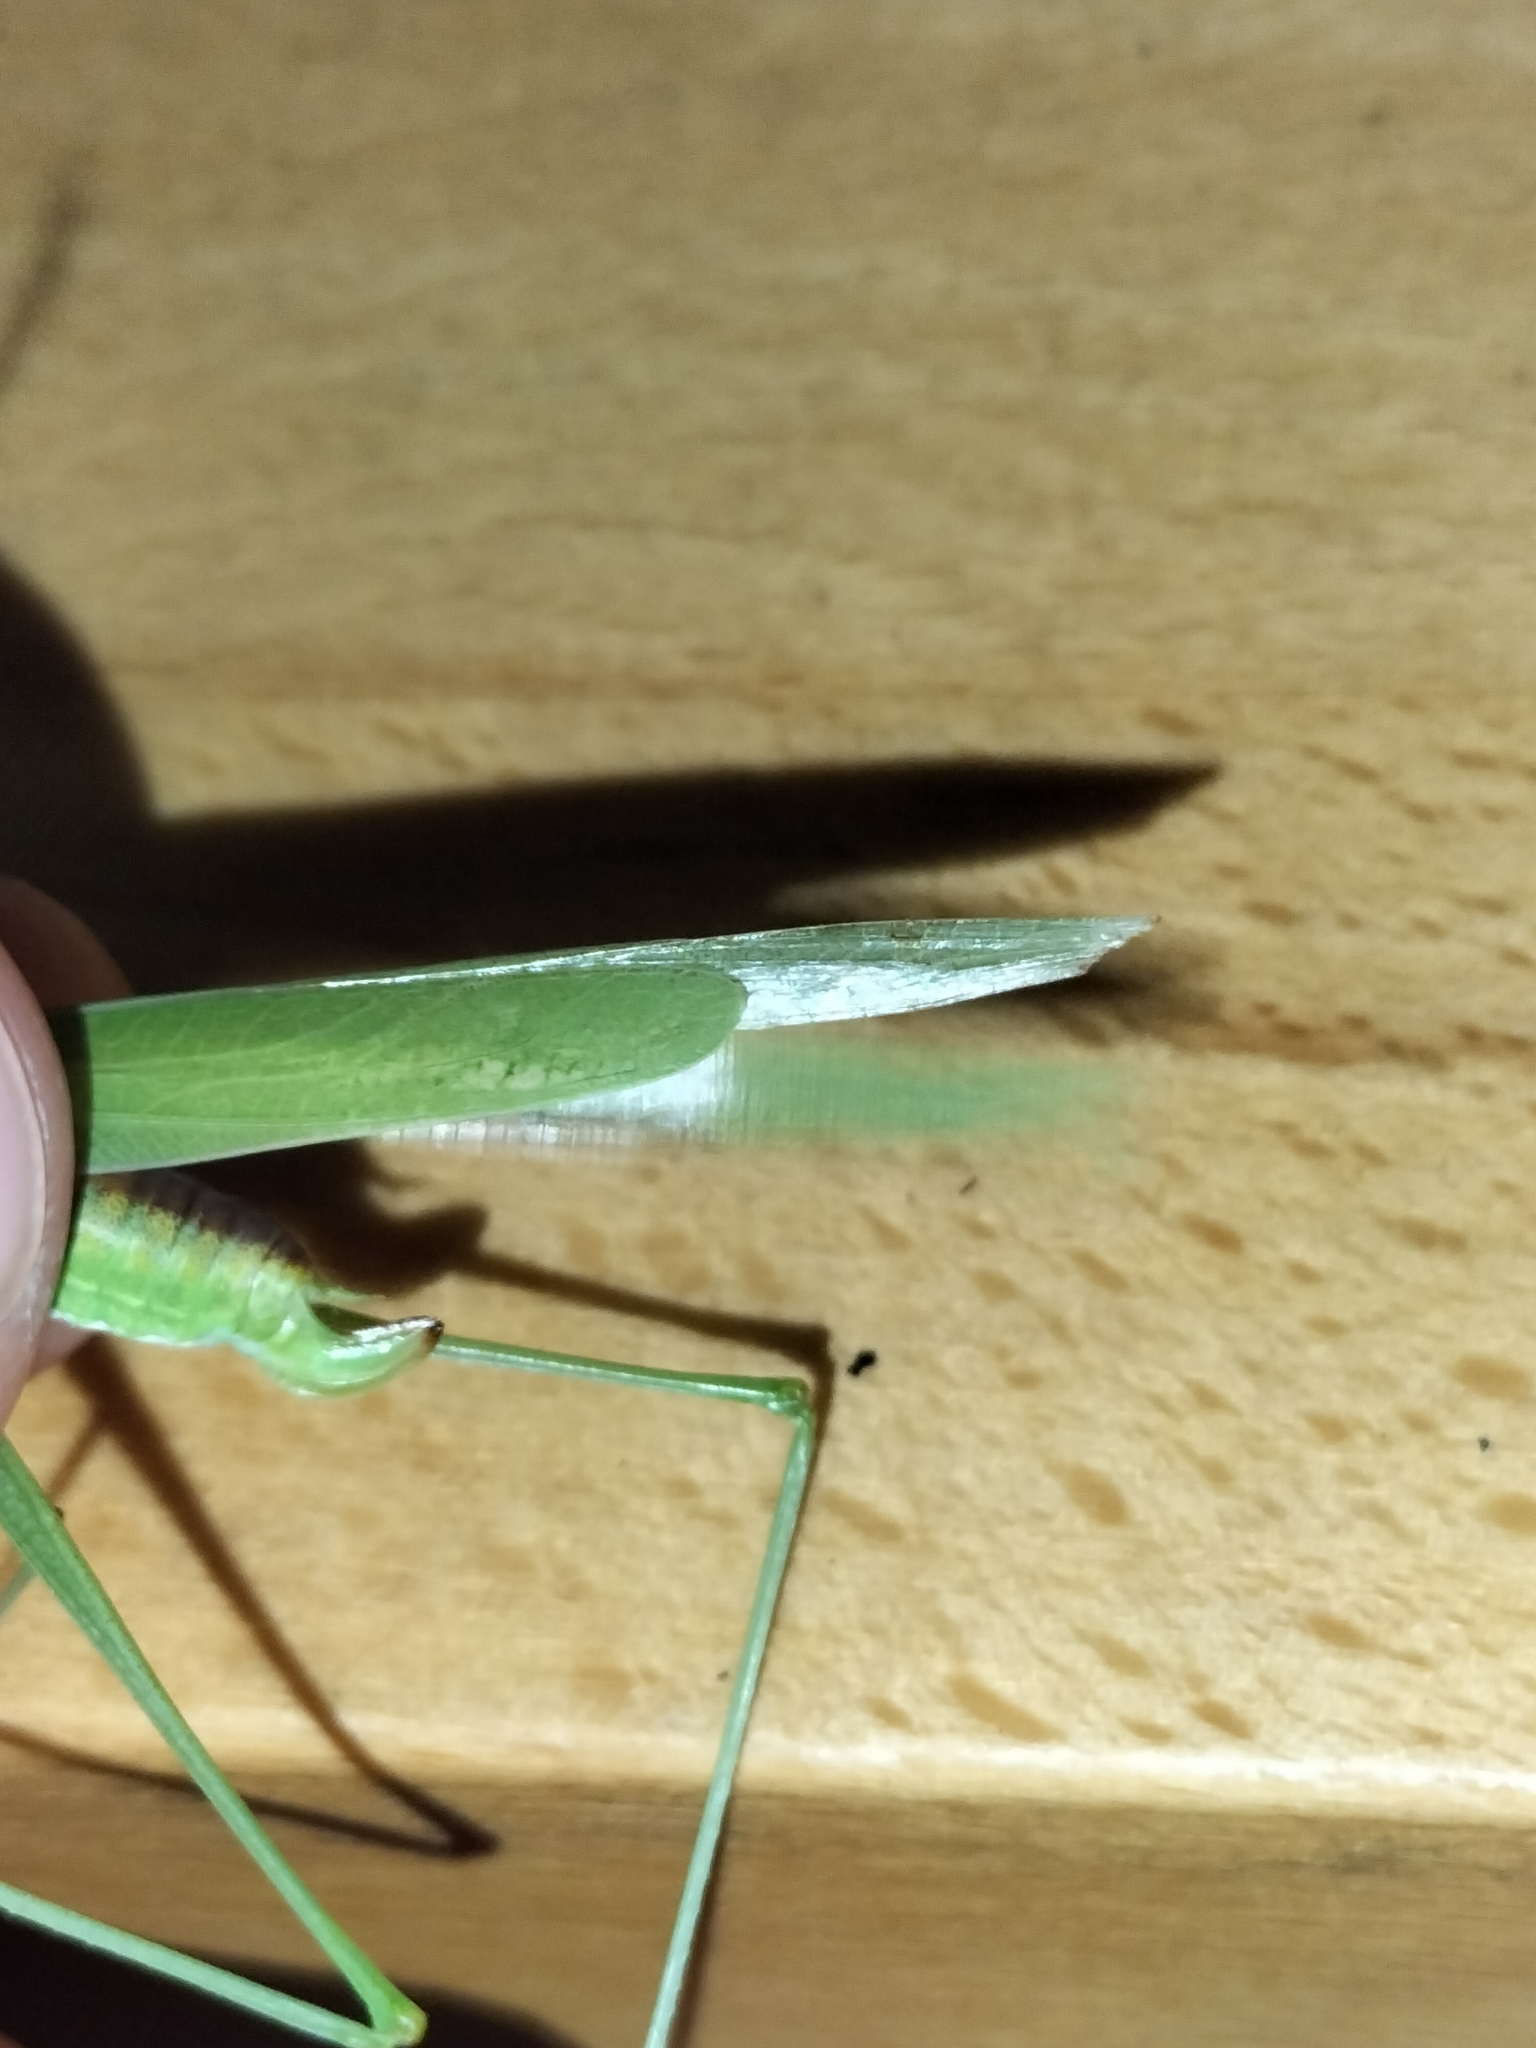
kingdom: Animalia
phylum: Arthropoda
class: Insecta
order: Orthoptera
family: Tettigoniidae
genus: Phaneroptera
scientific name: Phaneroptera gracilis
